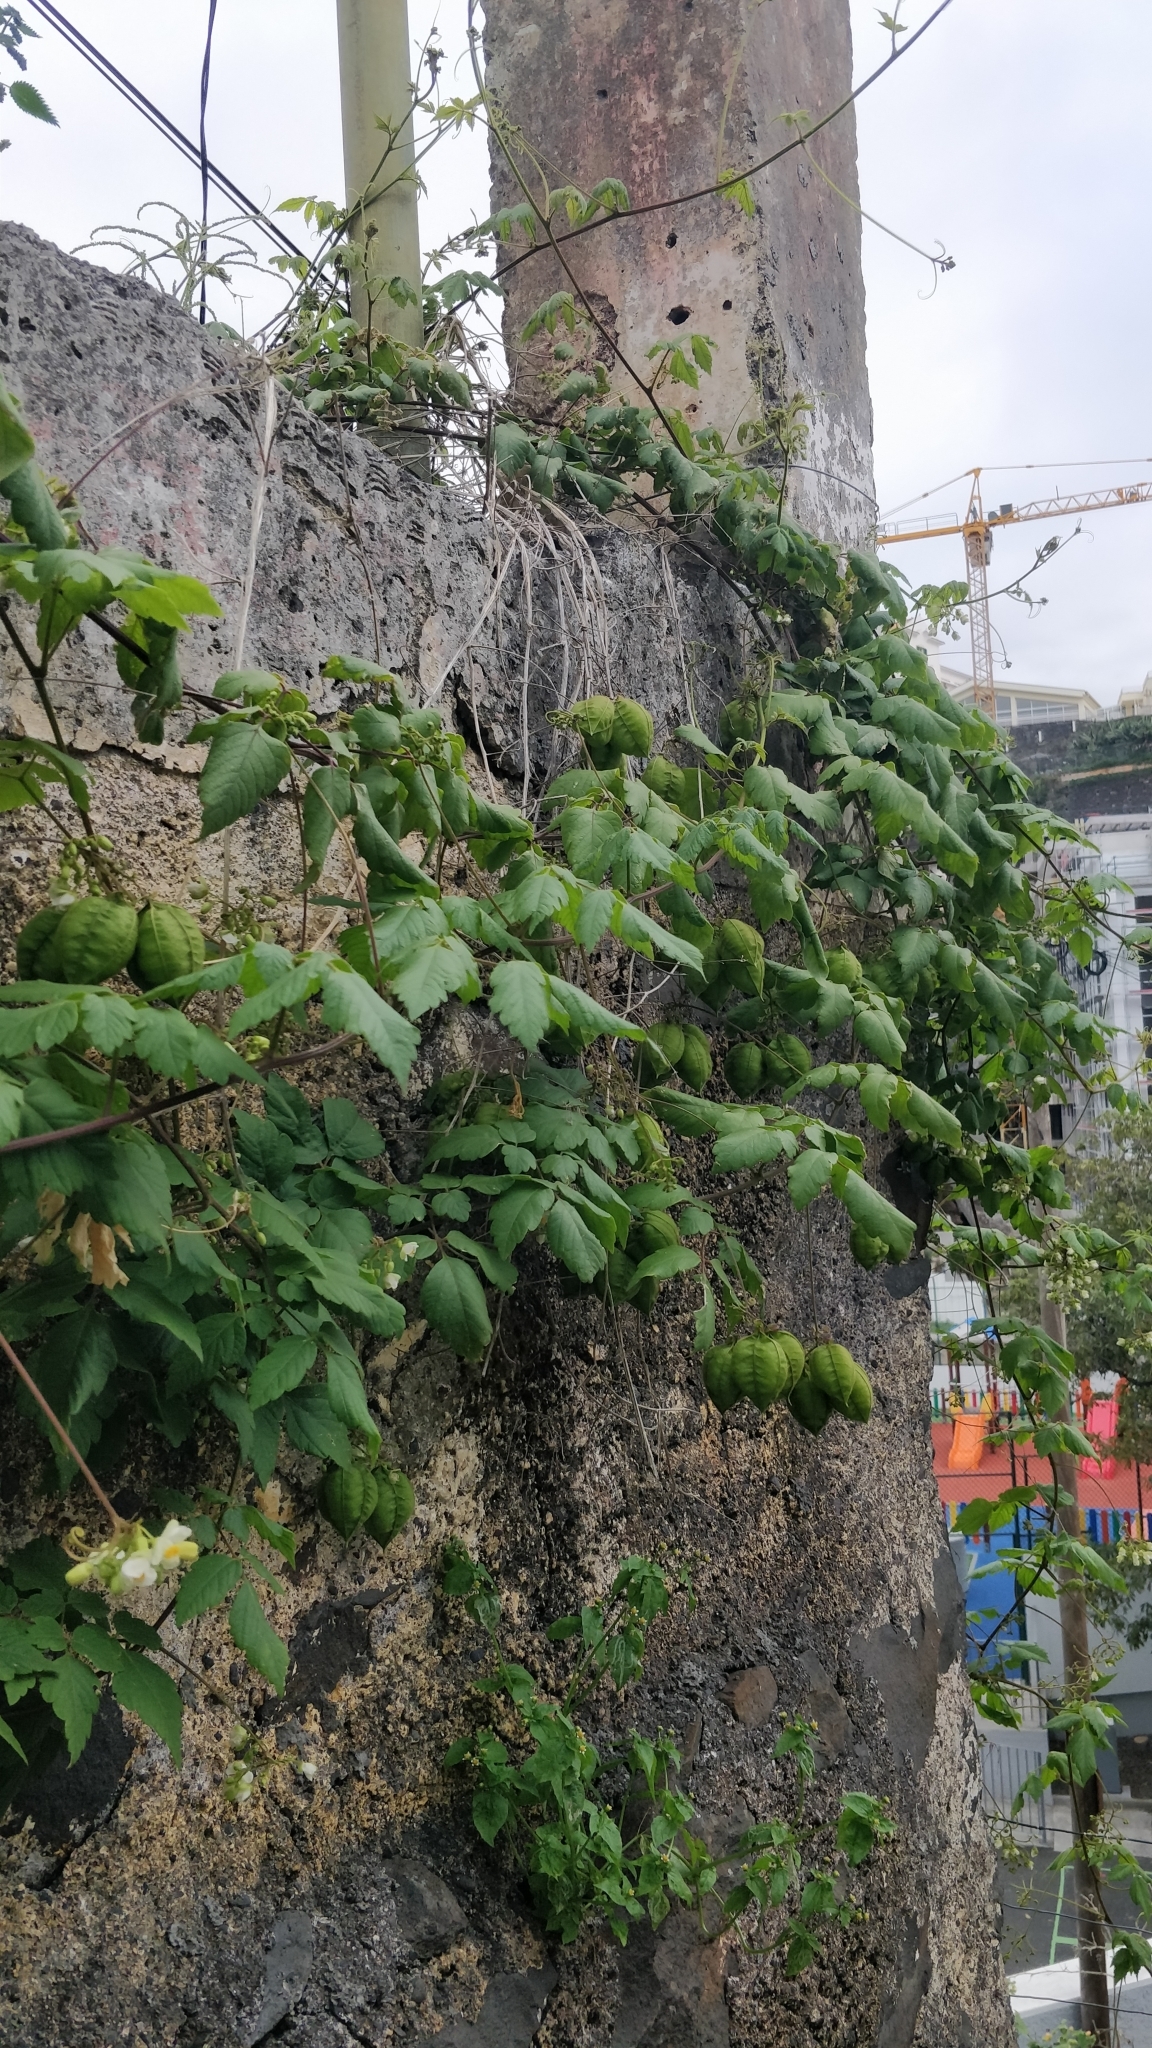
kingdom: Plantae
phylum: Tracheophyta
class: Magnoliopsida
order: Sapindales
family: Sapindaceae
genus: Cardiospermum
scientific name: Cardiospermum grandiflorum
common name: Balloon vine
